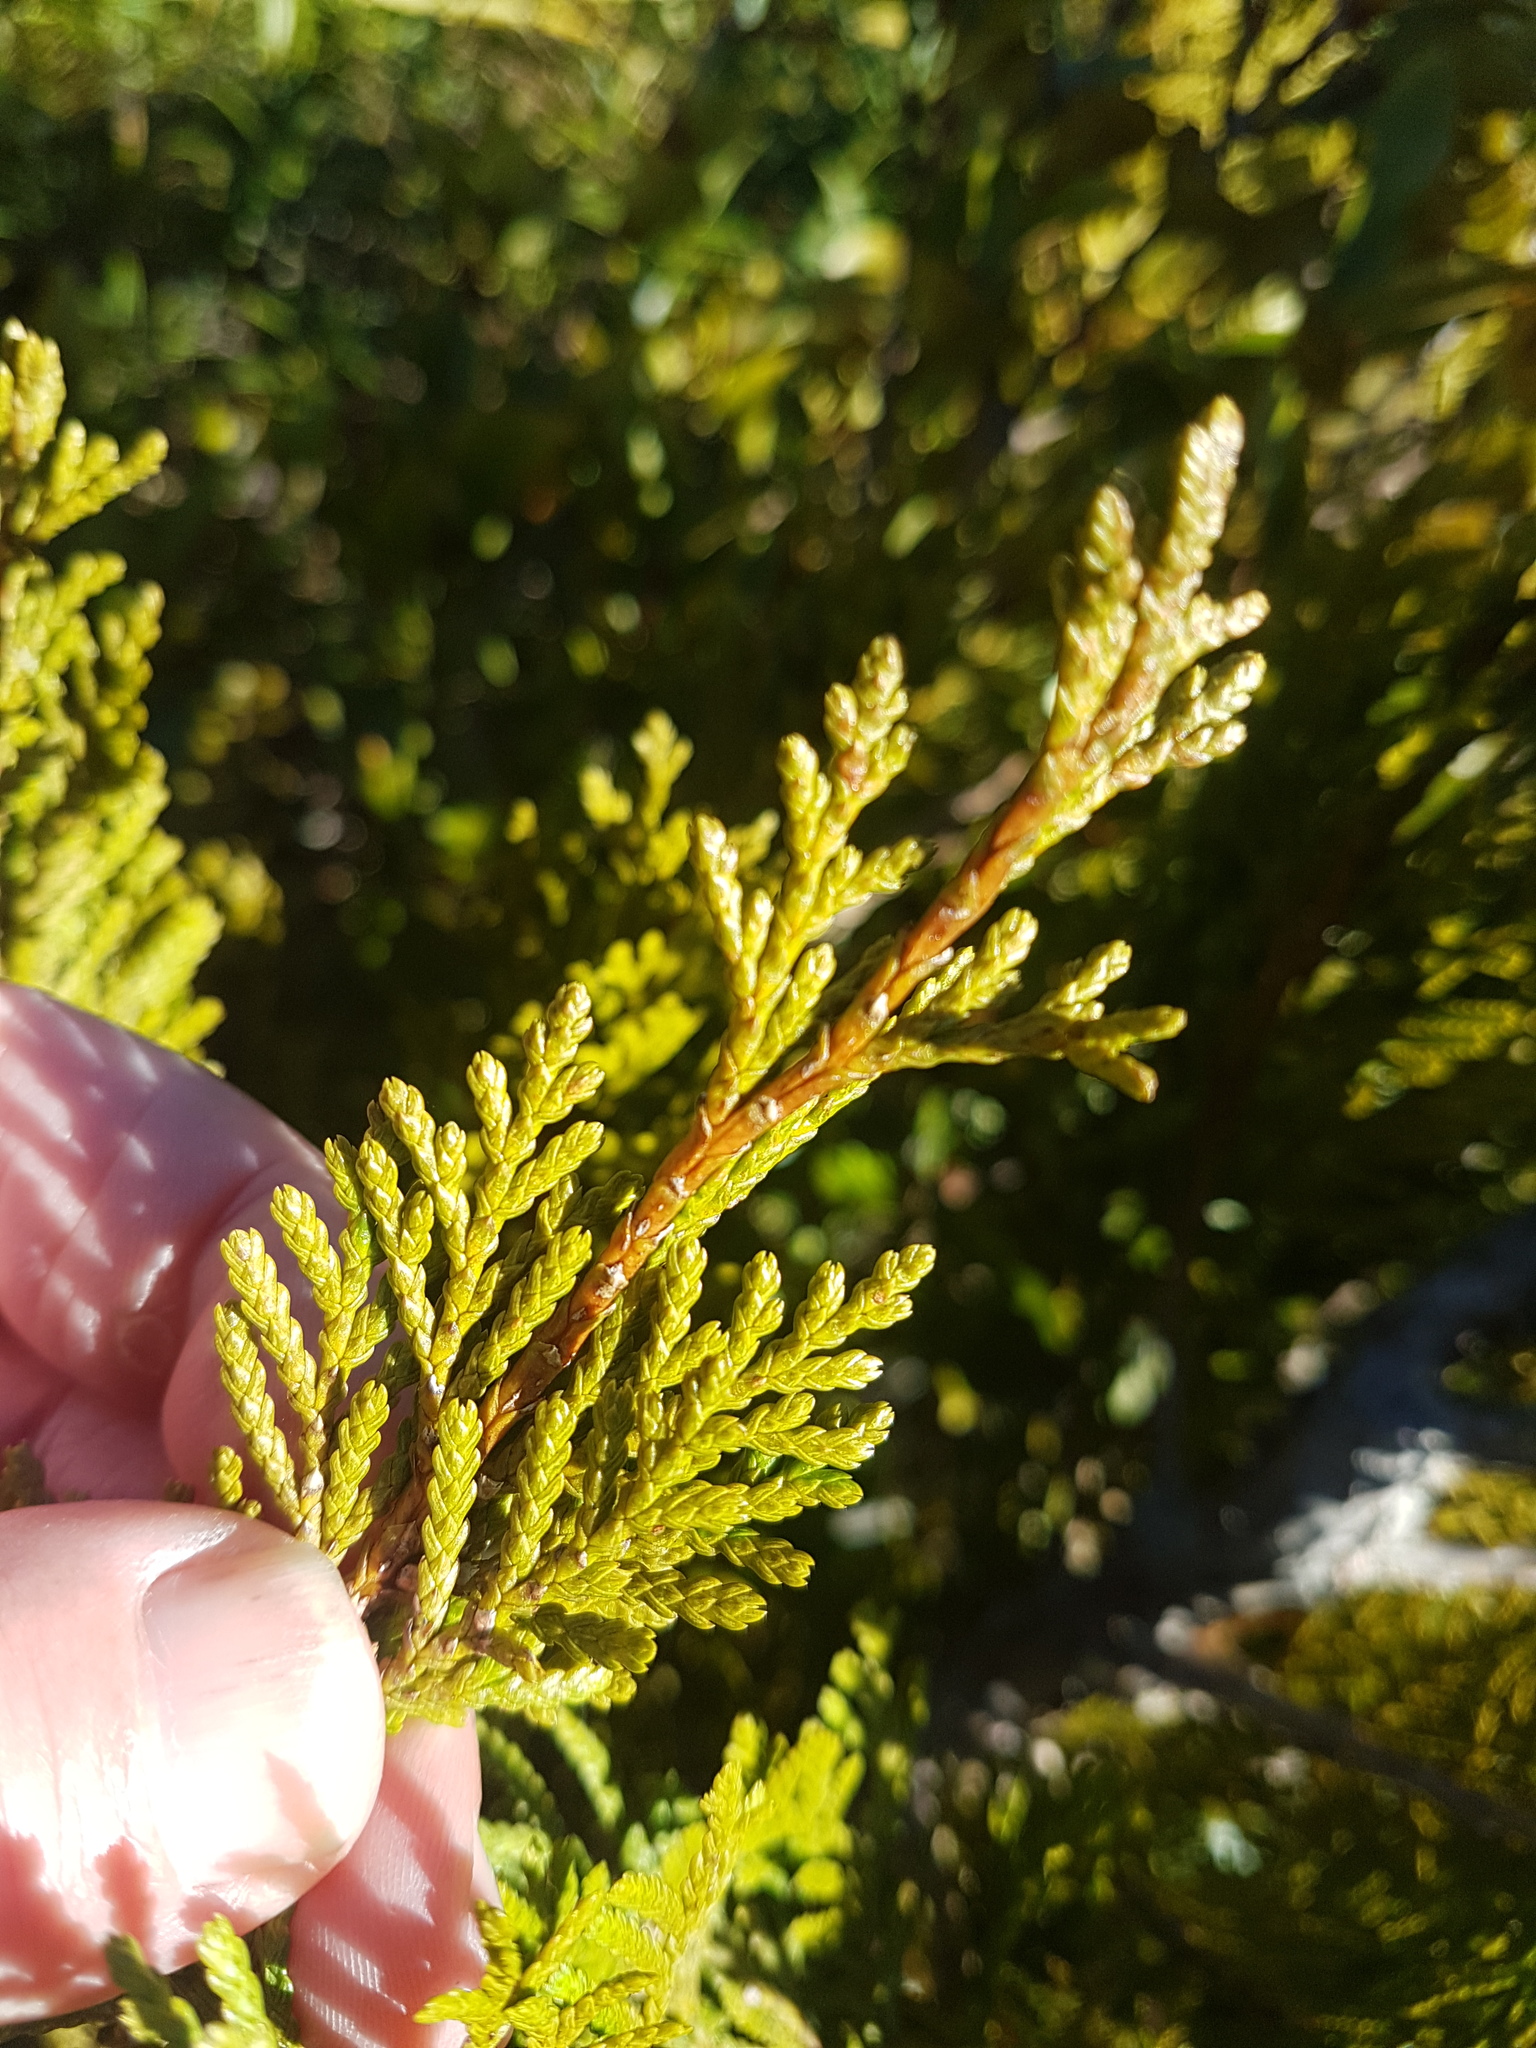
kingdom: Plantae
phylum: Tracheophyta
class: Pinopsida
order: Pinales
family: Cupressaceae
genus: Libocedrus
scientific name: Libocedrus bidwillii
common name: Cedar
